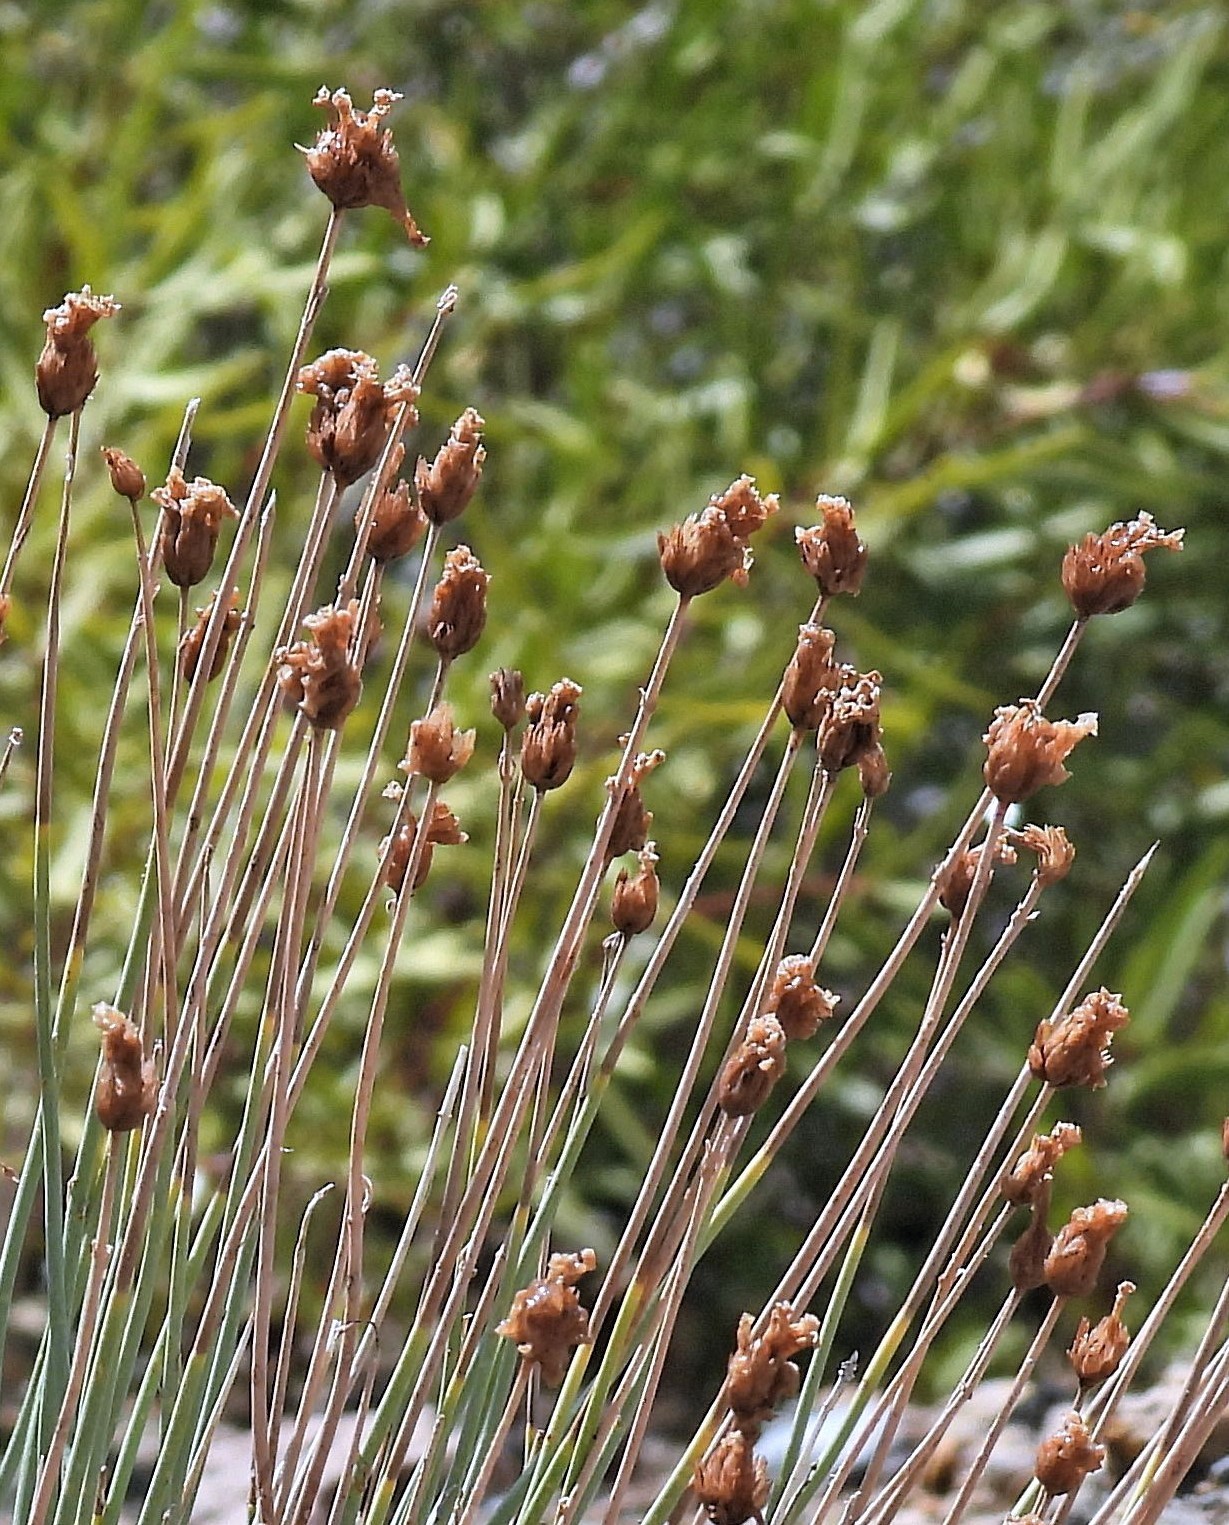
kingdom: Plantae
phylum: Tracheophyta
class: Magnoliopsida
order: Lamiales
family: Verbenaceae
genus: Junellia
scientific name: Junellia spathulata
